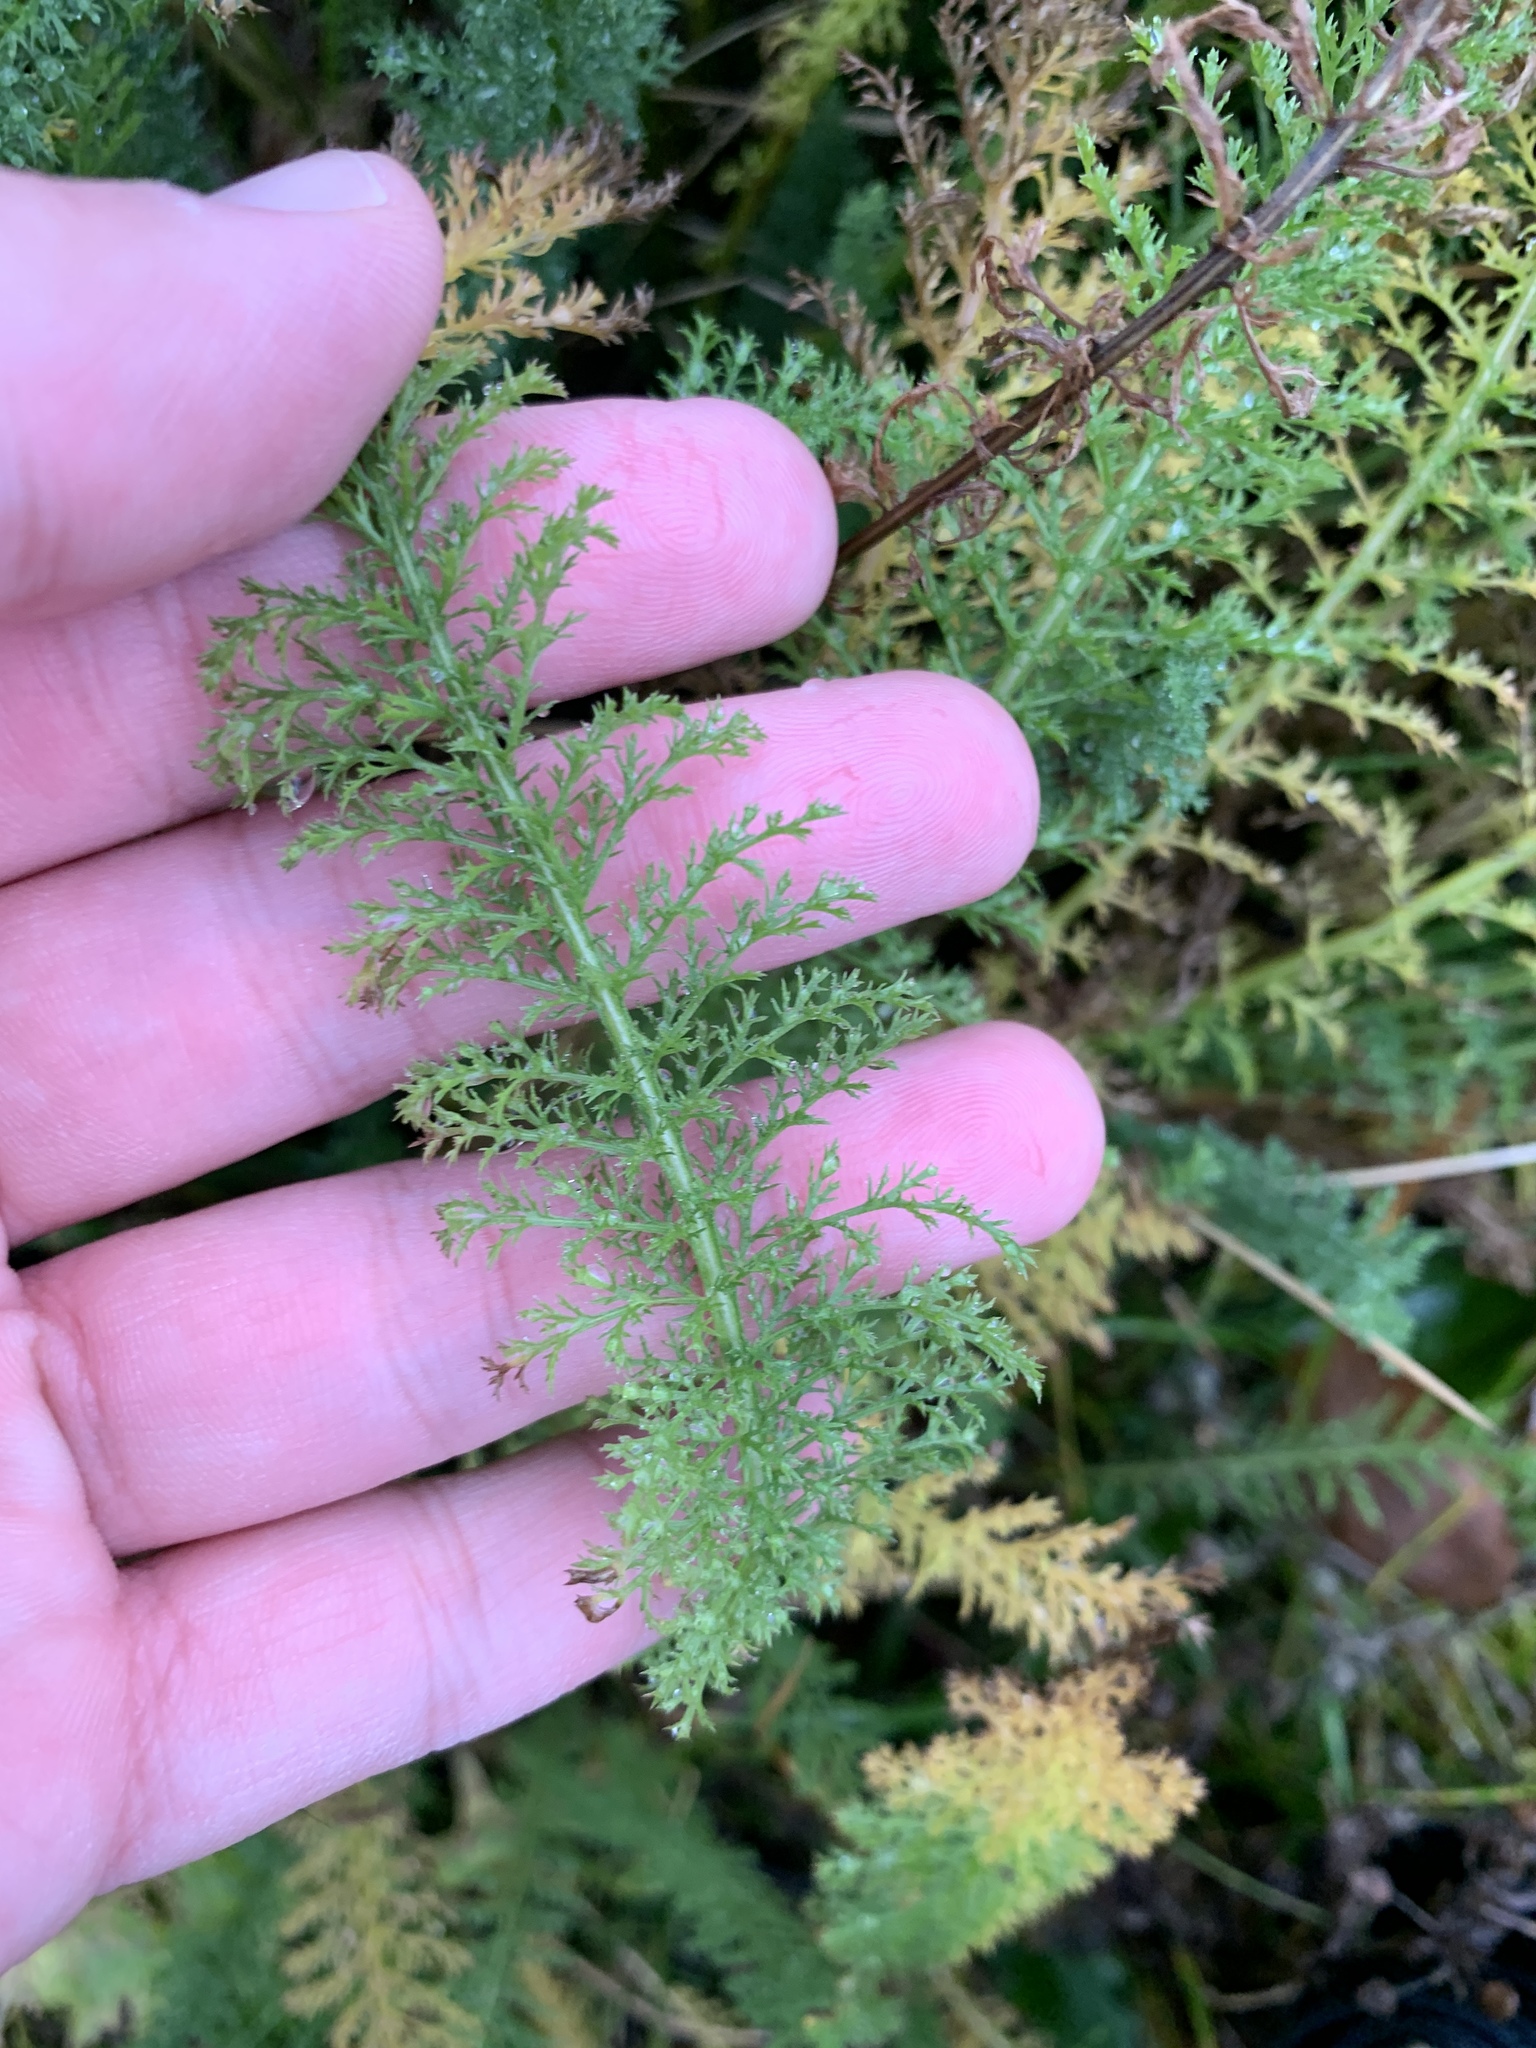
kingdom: Plantae
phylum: Tracheophyta
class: Magnoliopsida
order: Asterales
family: Asteraceae
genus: Achillea
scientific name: Achillea millefolium
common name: Yarrow
